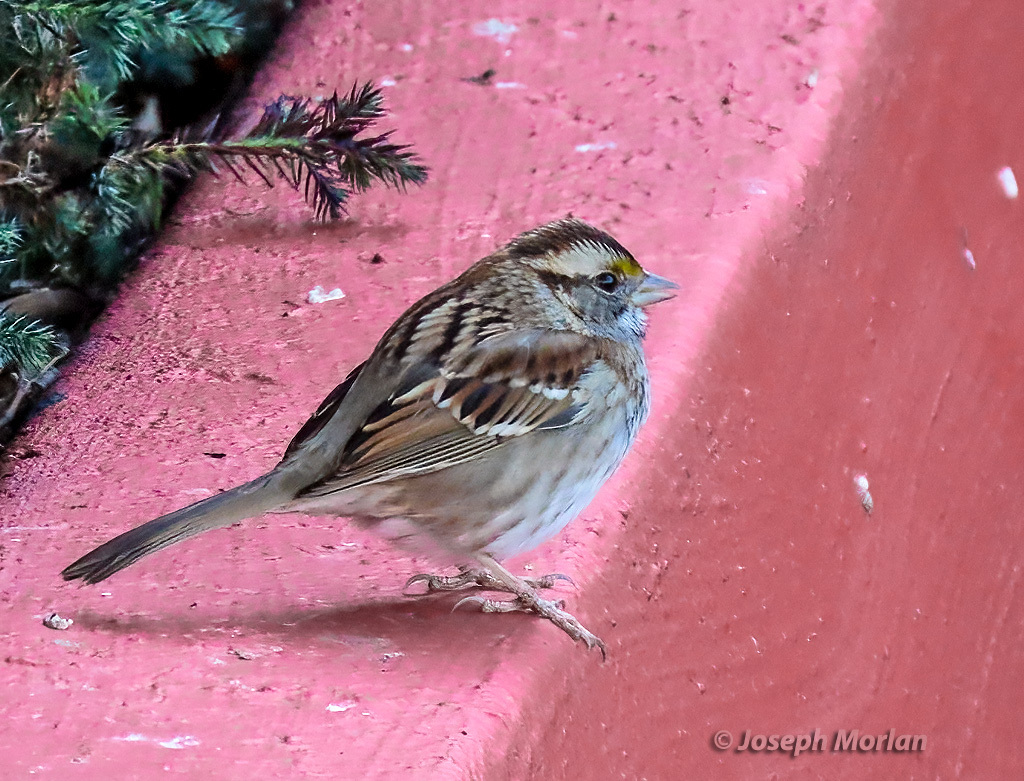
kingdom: Animalia
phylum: Chordata
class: Aves
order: Passeriformes
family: Passerellidae
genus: Zonotrichia
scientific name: Zonotrichia albicollis
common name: White-throated sparrow
